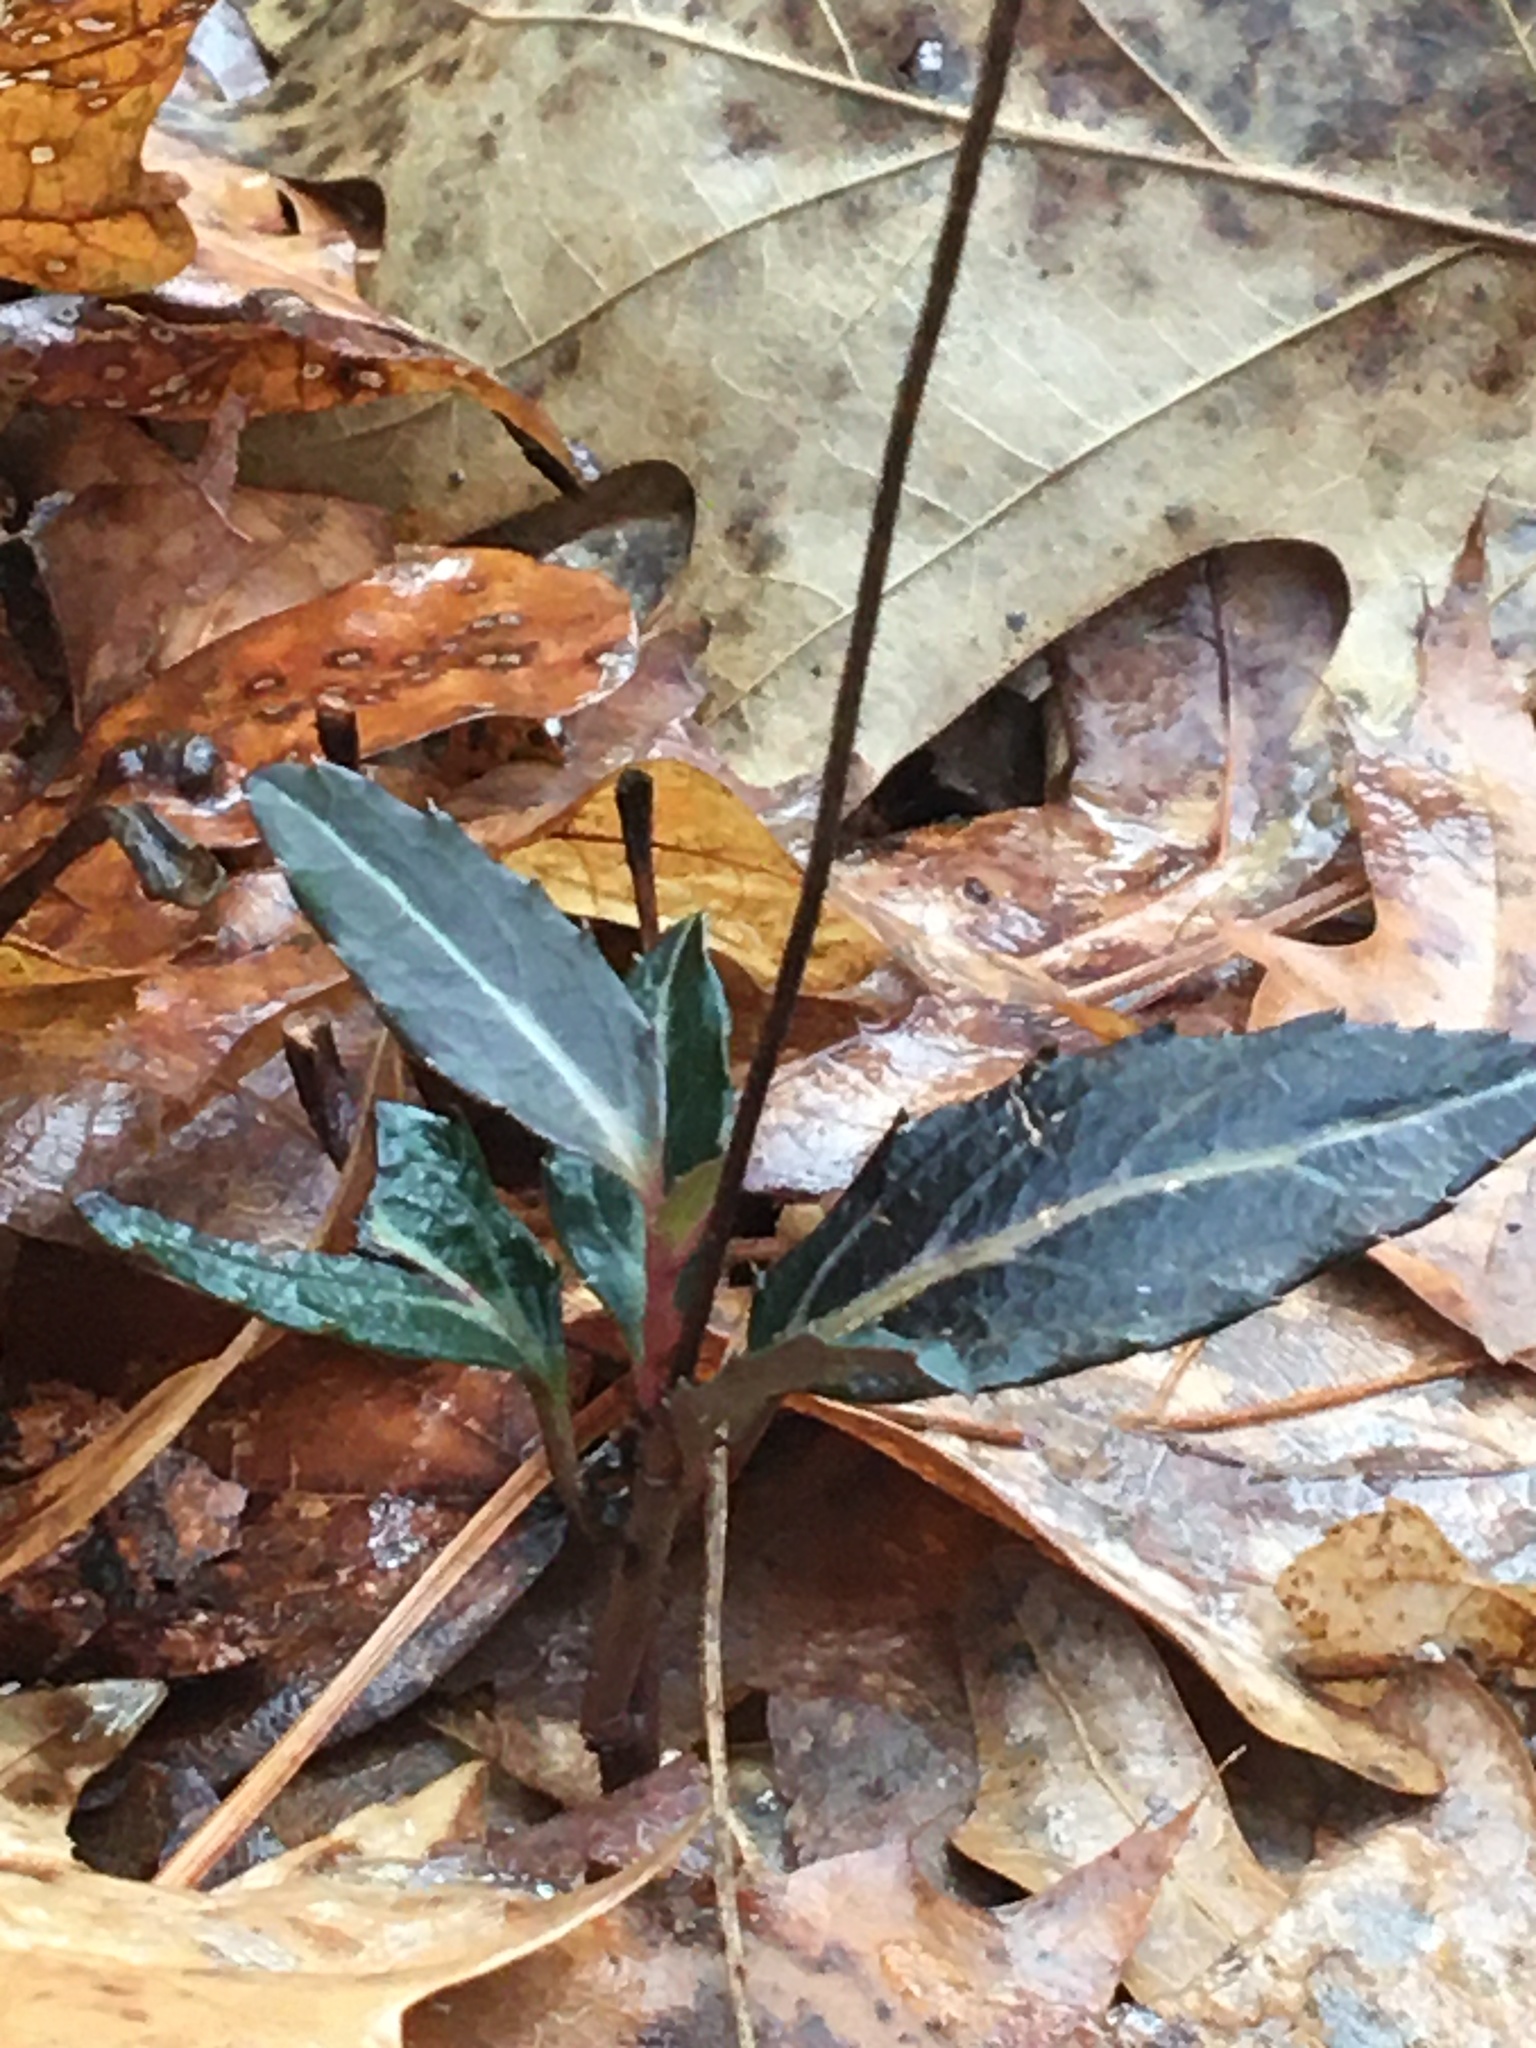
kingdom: Plantae
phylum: Tracheophyta
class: Magnoliopsida
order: Ericales
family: Ericaceae
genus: Chimaphila
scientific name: Chimaphila maculata
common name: Spotted pipsissewa
